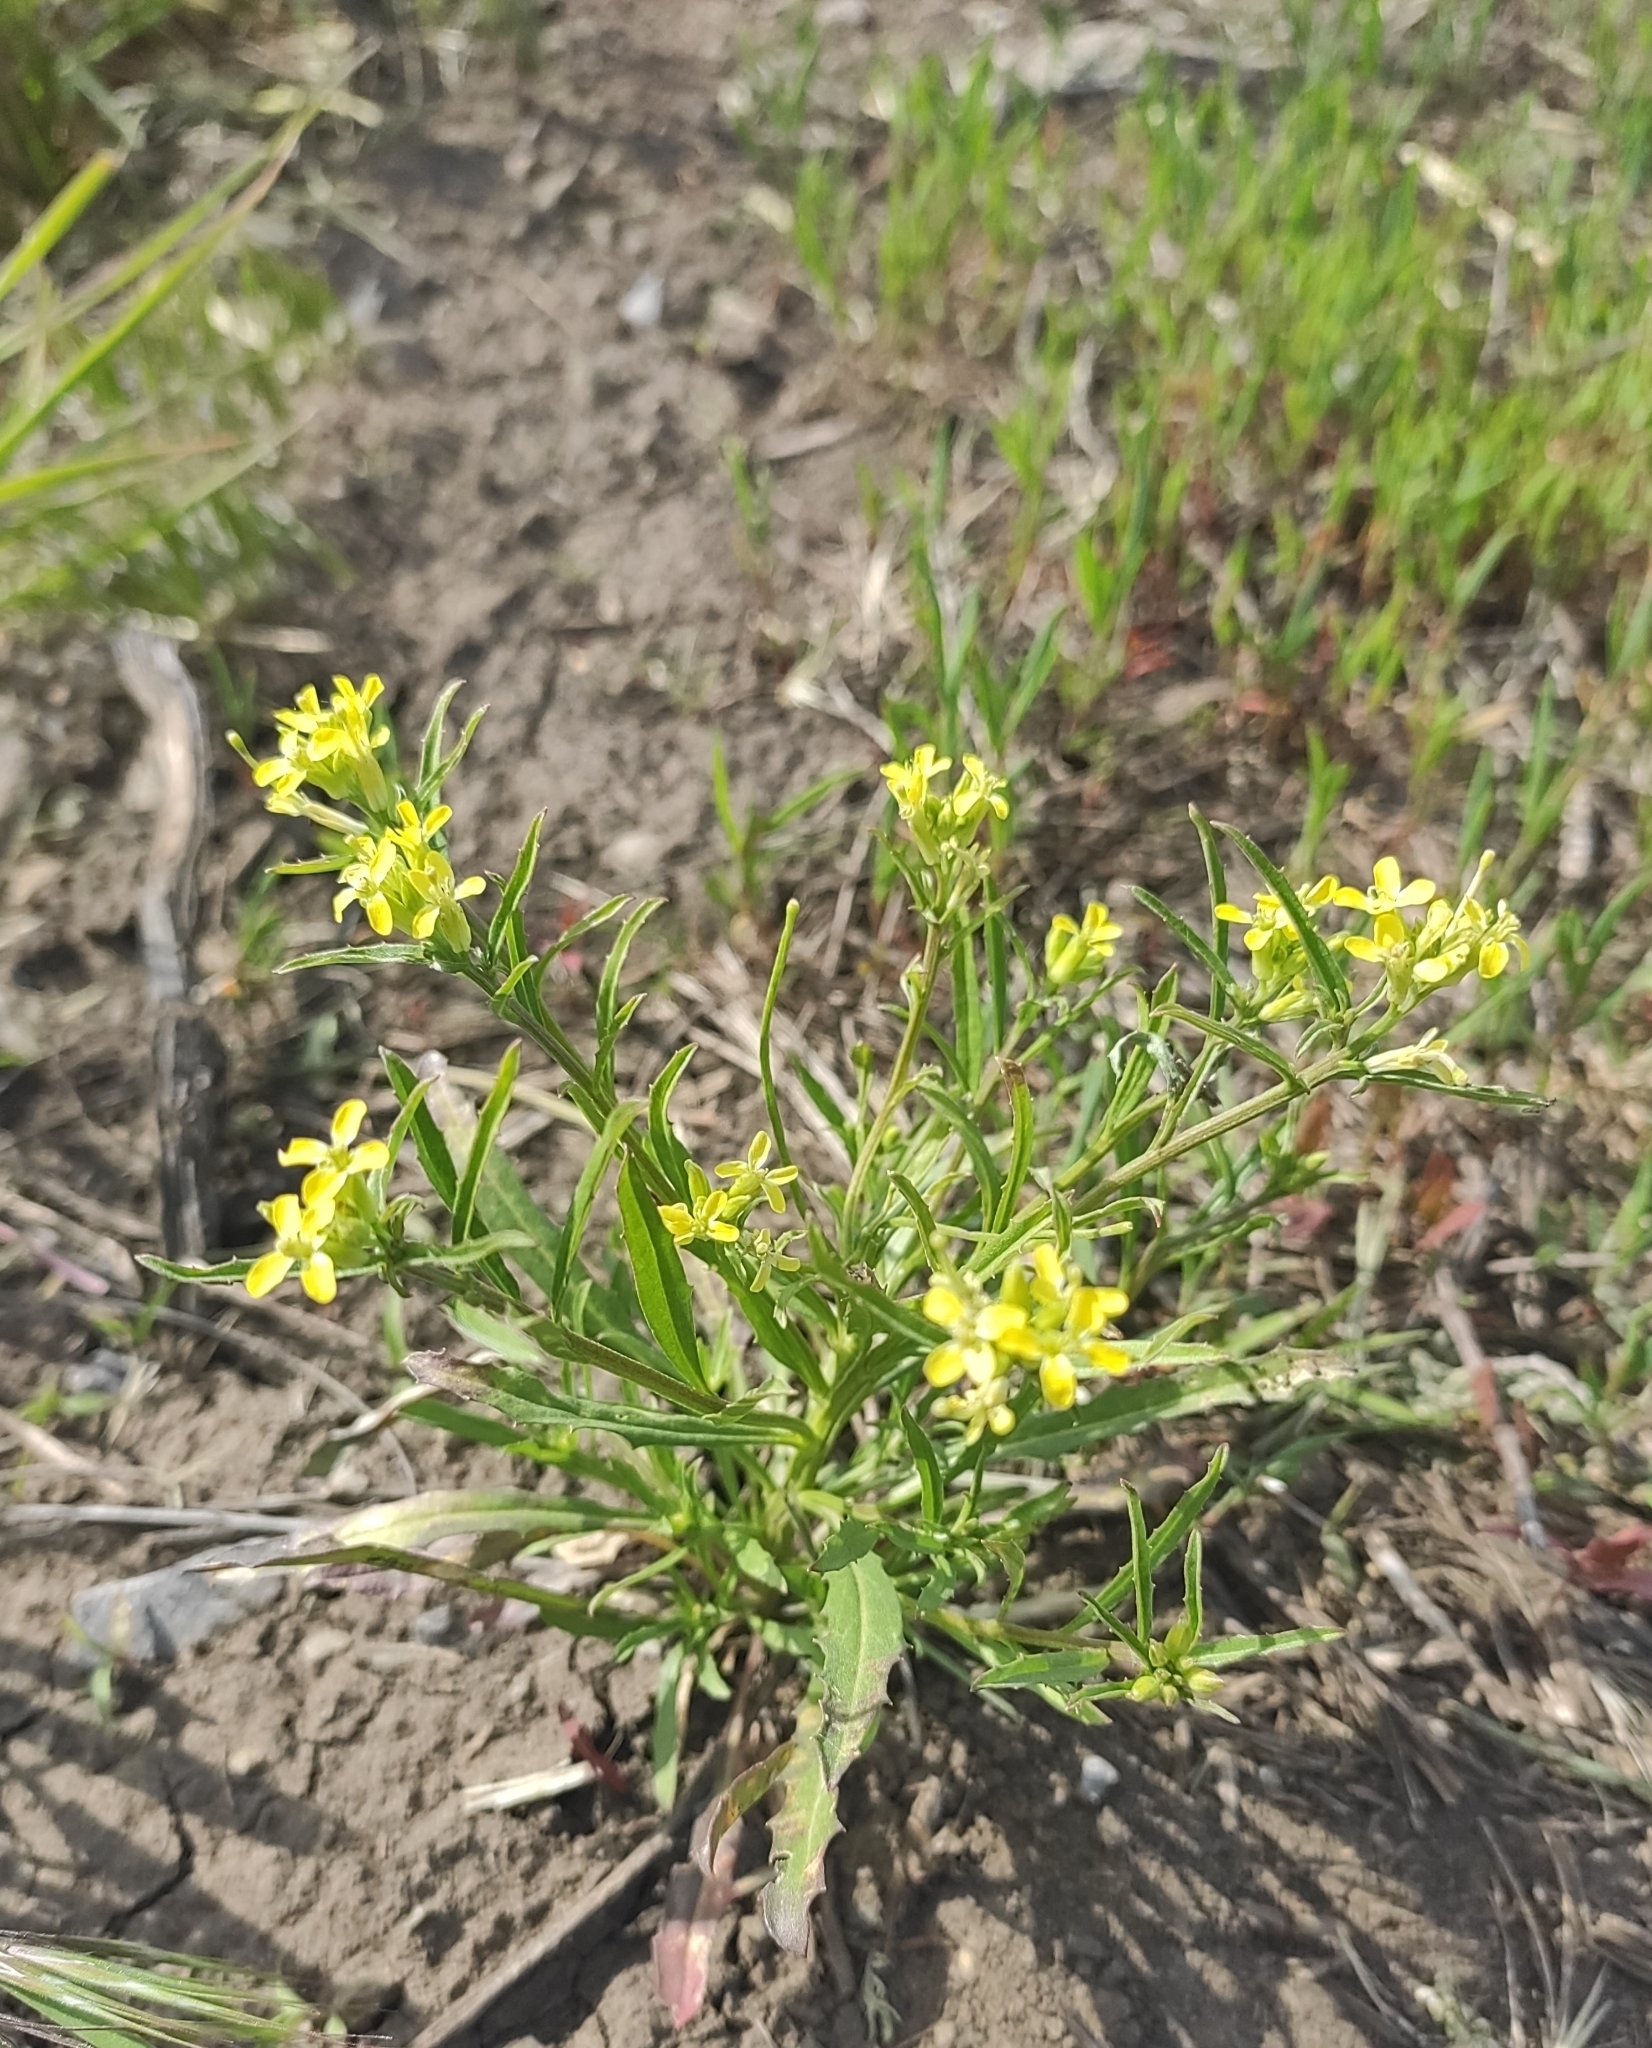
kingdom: Plantae
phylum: Tracheophyta
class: Magnoliopsida
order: Brassicales
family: Brassicaceae
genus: Erysimum
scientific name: Erysimum repandum
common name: Spreading wallflower
